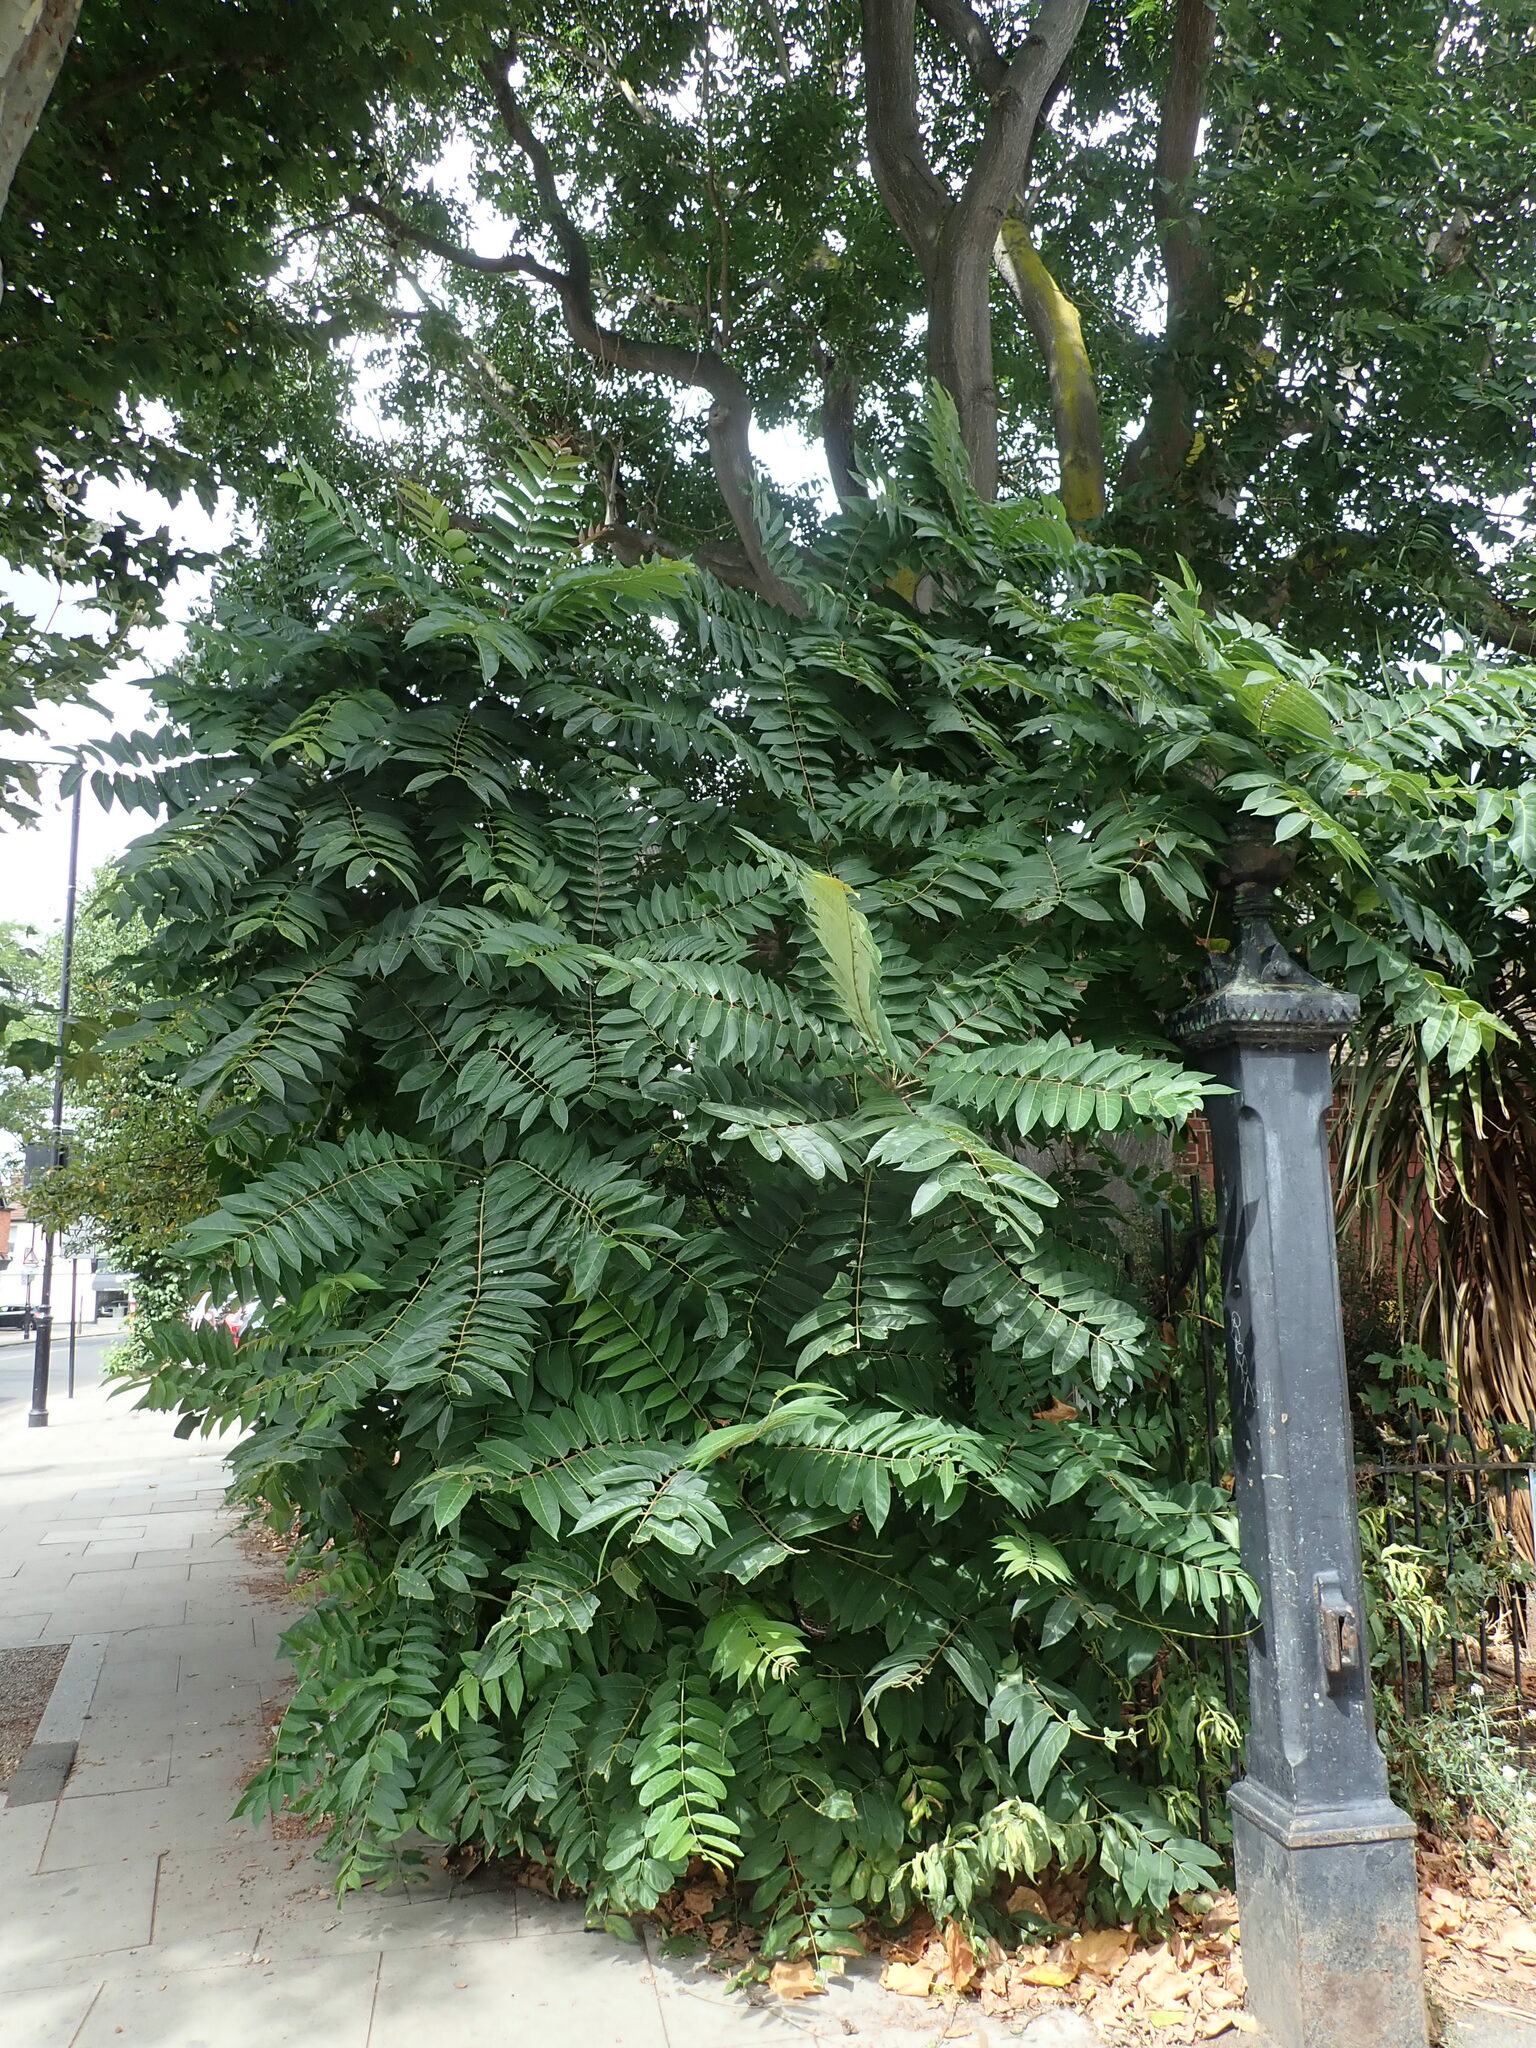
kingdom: Plantae
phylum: Tracheophyta
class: Magnoliopsida
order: Sapindales
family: Simaroubaceae
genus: Ailanthus
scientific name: Ailanthus altissima
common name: Tree-of-heaven
